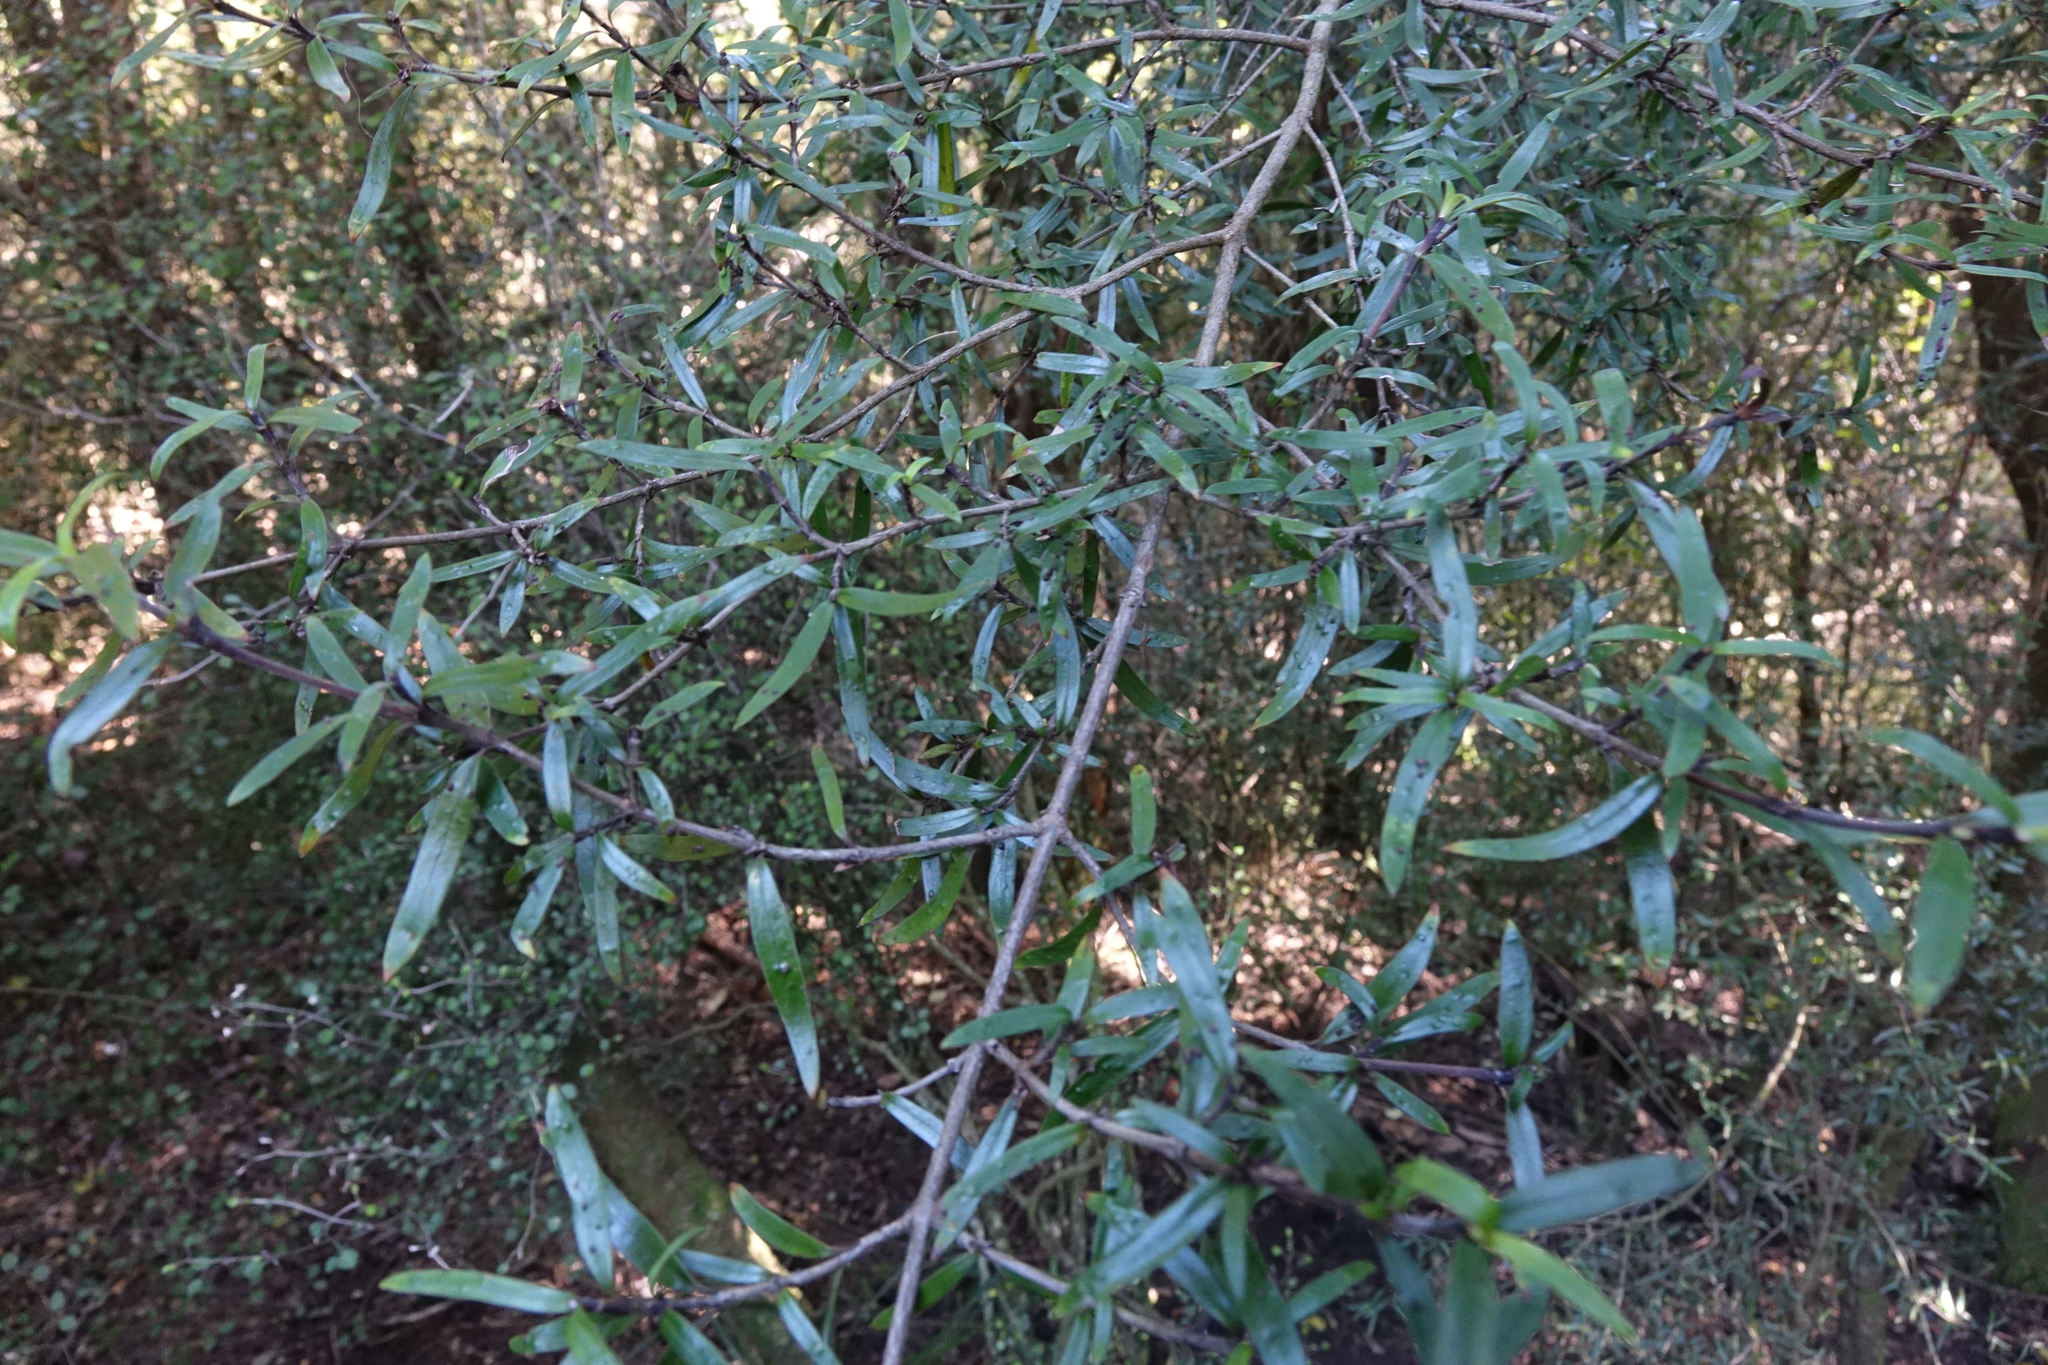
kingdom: Plantae
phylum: Tracheophyta
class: Magnoliopsida
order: Gentianales
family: Rubiaceae
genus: Coprosma
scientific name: Coprosma linariifolia
